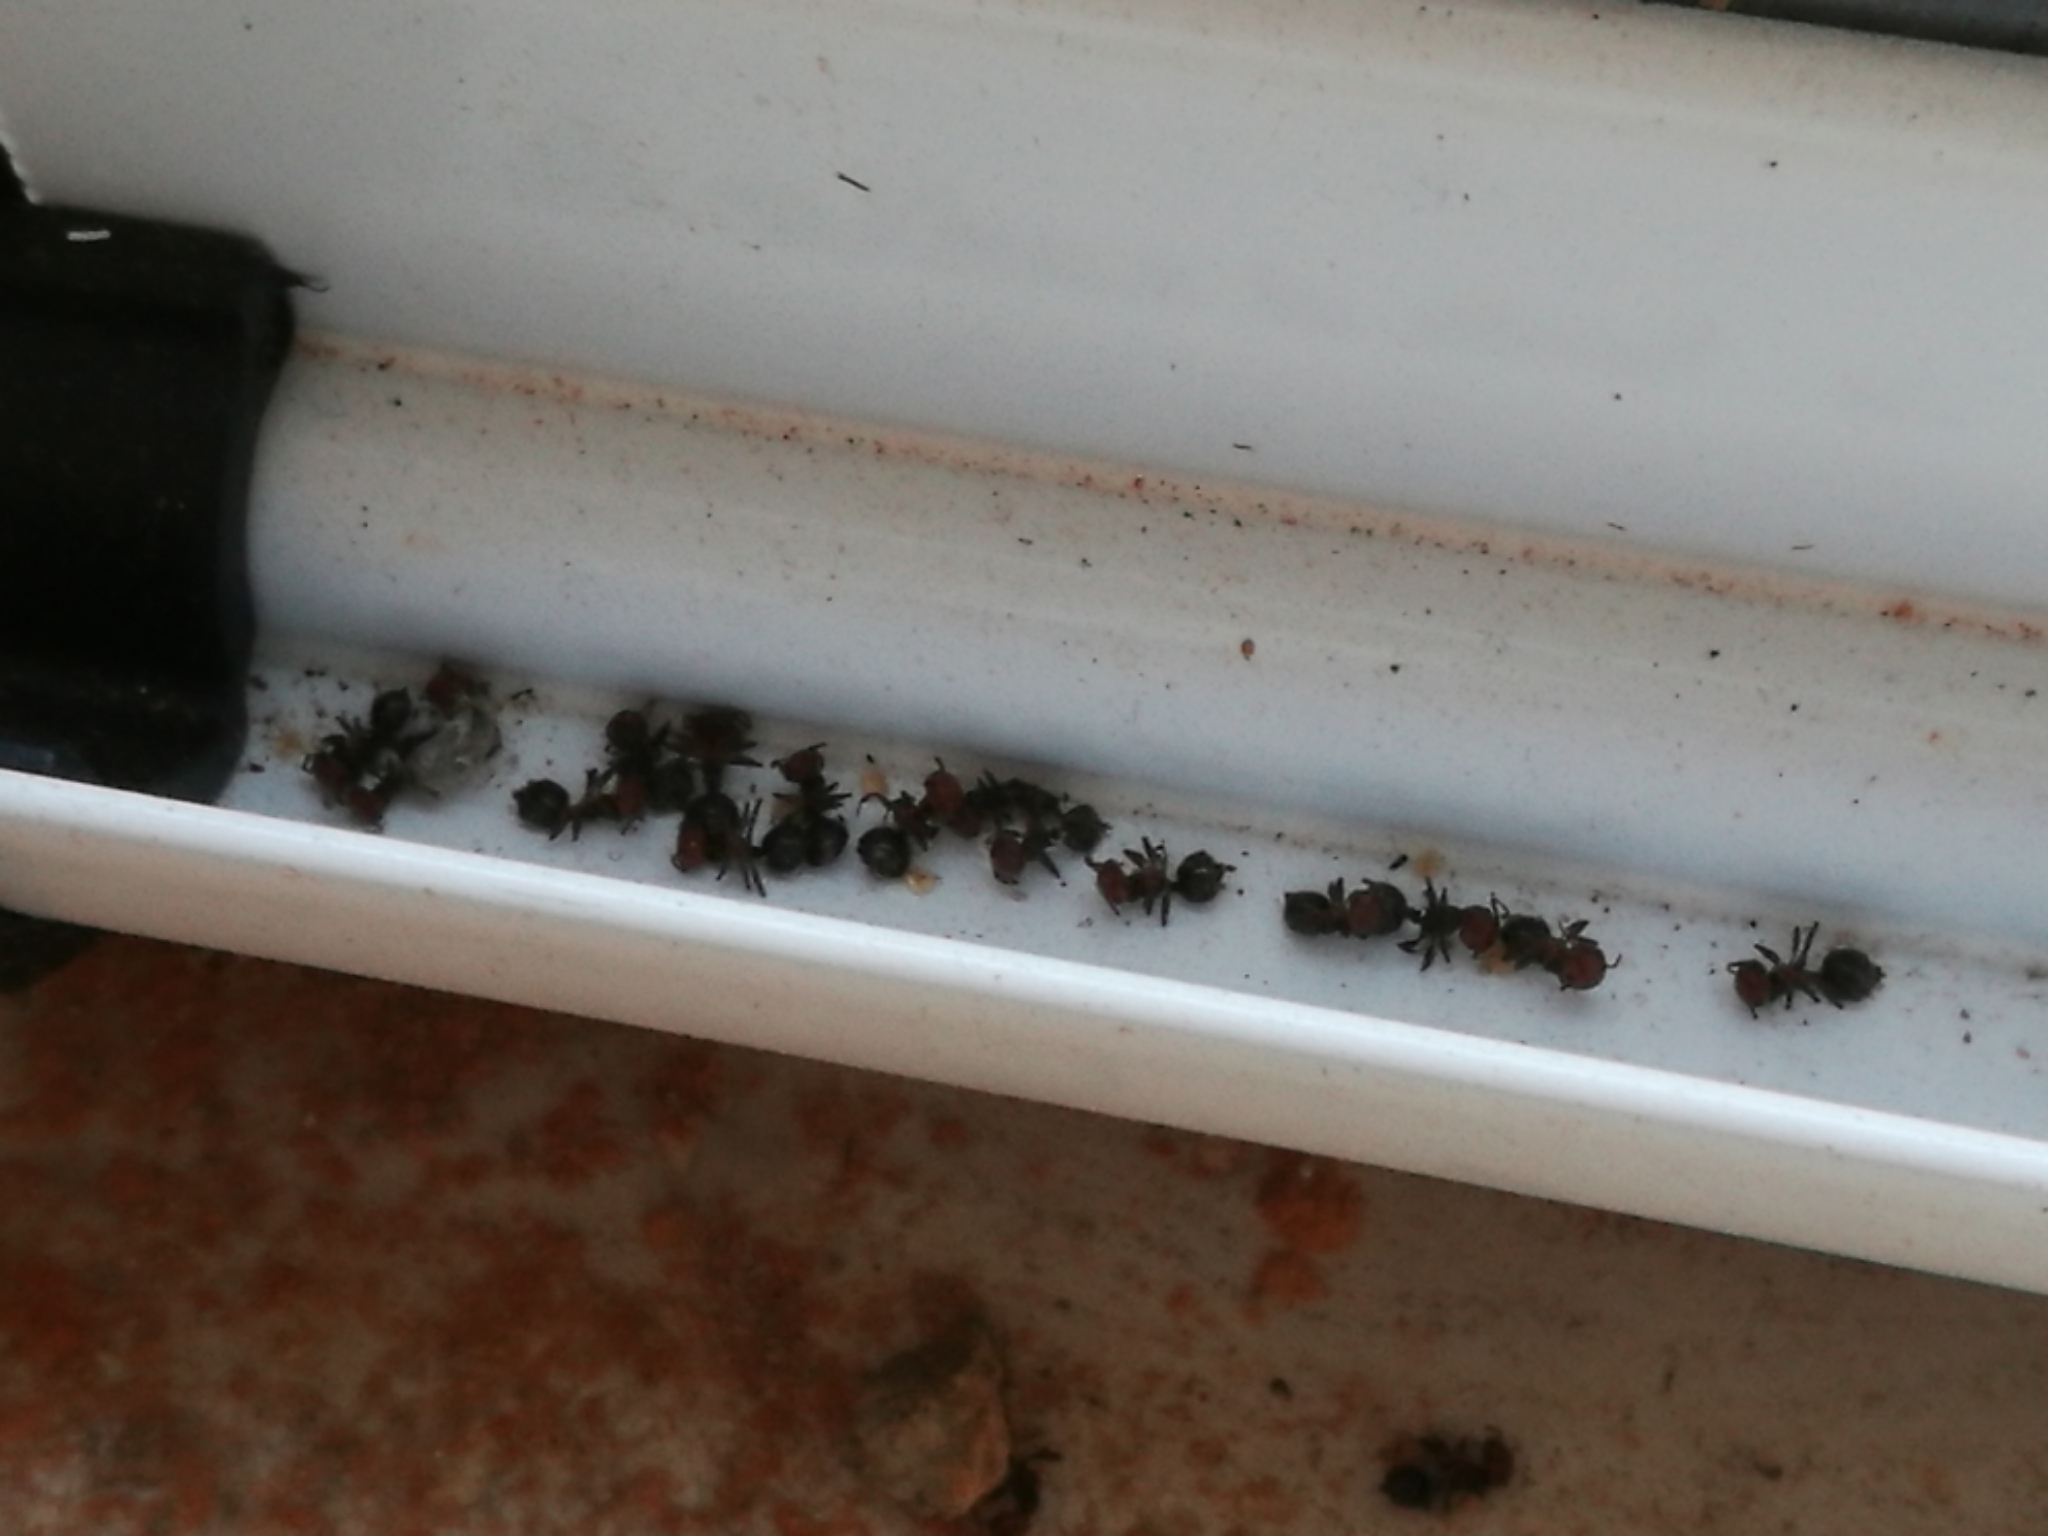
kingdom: Animalia
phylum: Arthropoda
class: Insecta
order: Hymenoptera
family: Formicidae
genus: Crematogaster
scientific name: Crematogaster scutellaris
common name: Fourmi du liège
